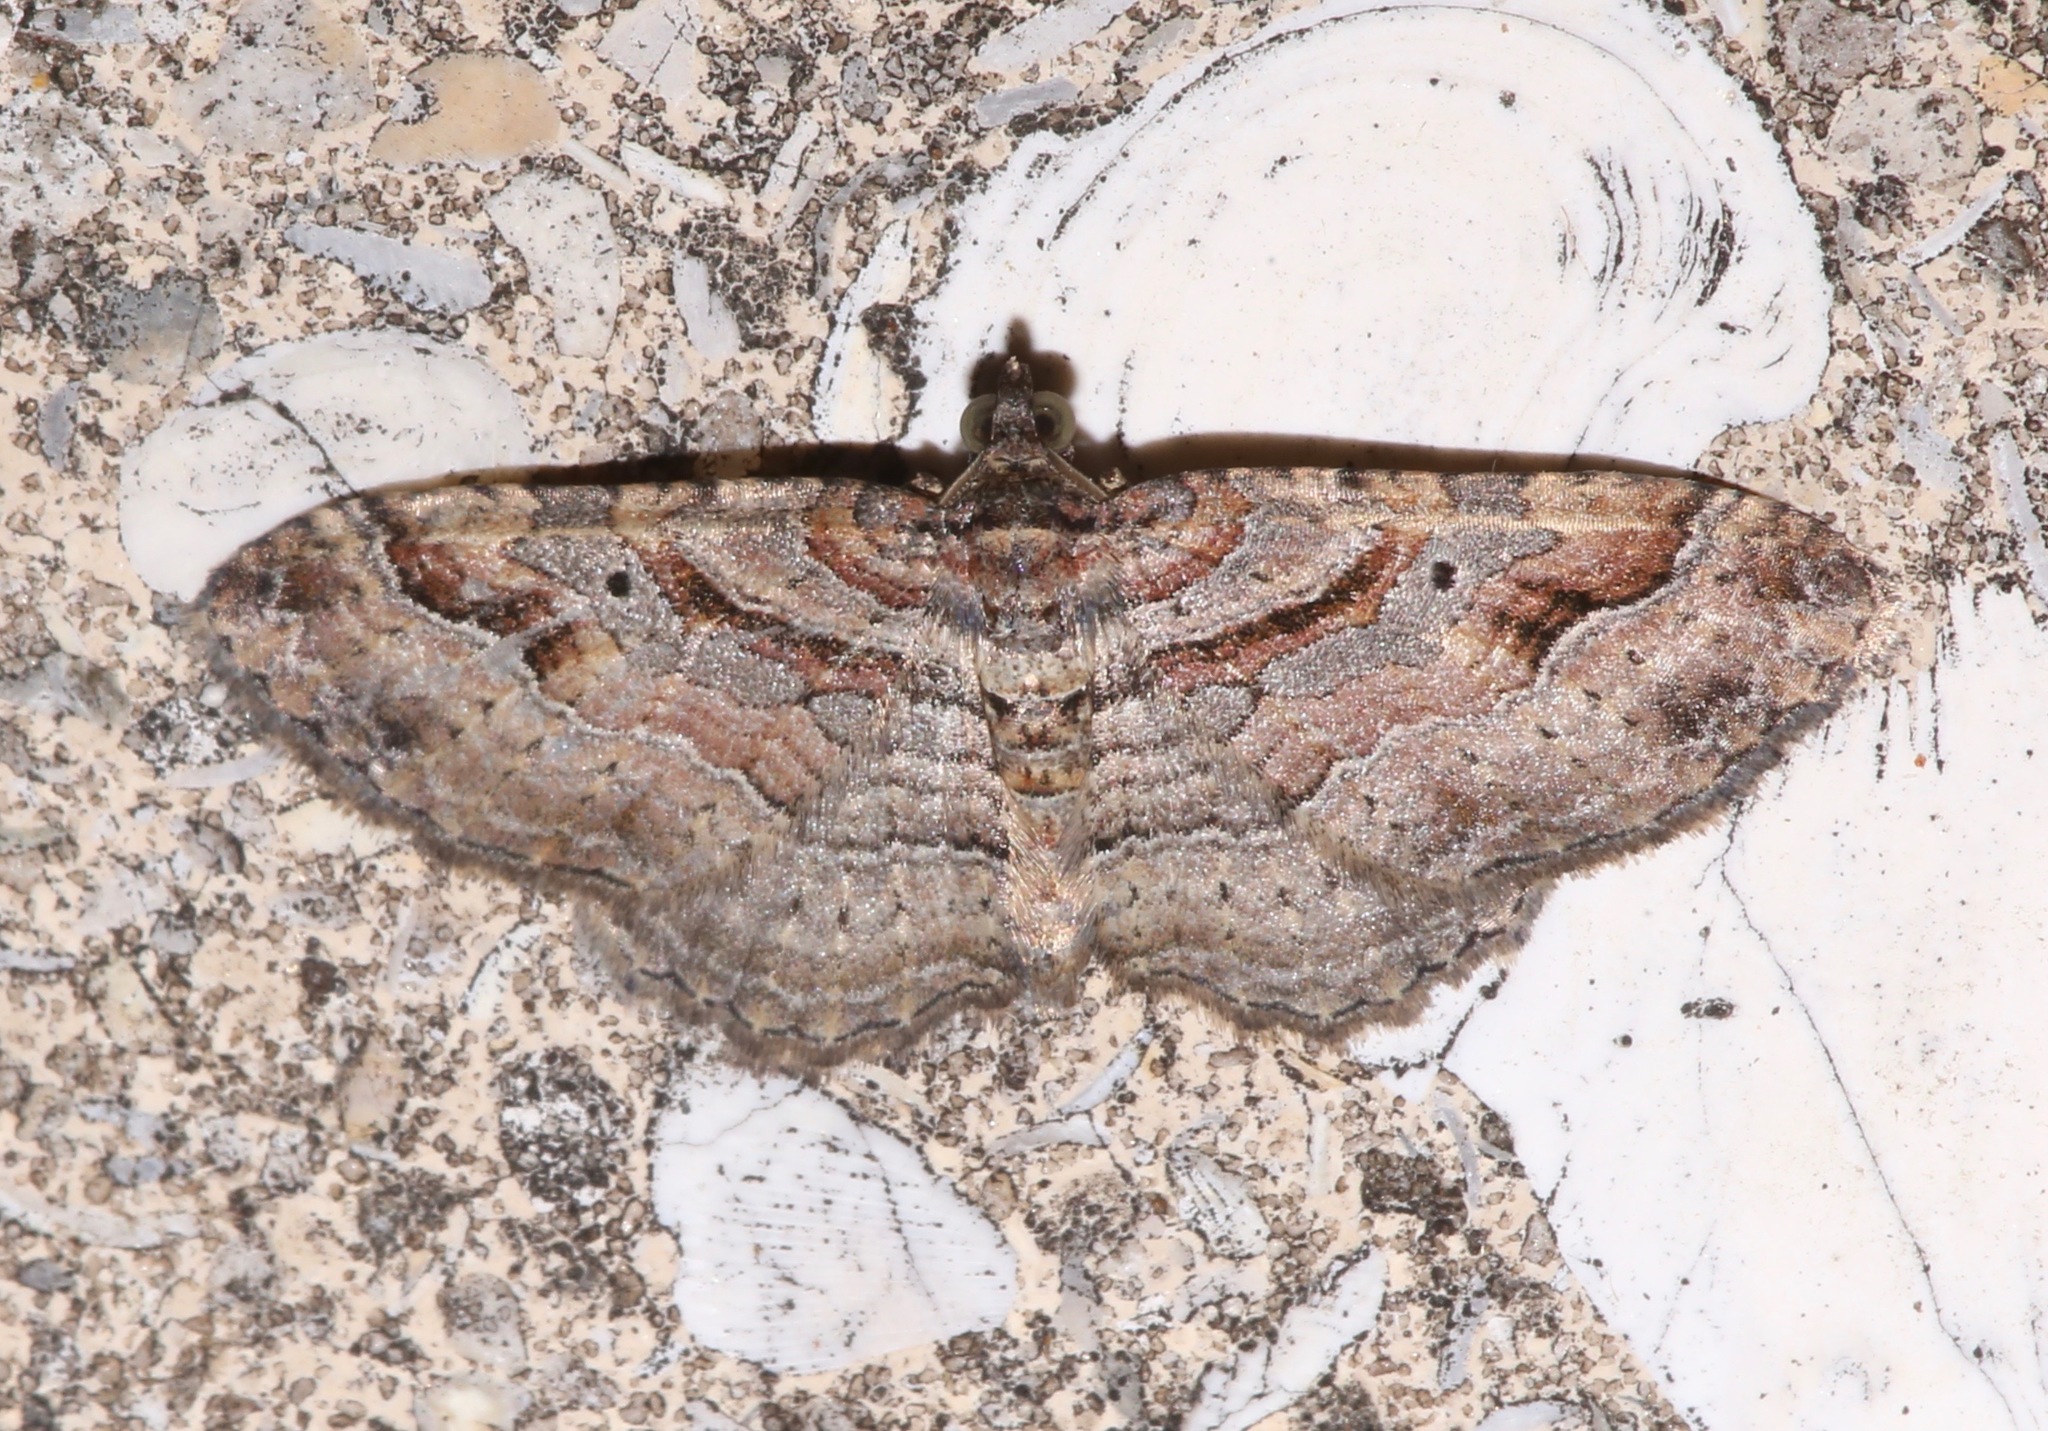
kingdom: Animalia
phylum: Arthropoda
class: Insecta
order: Lepidoptera
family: Geometridae
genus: Costaconvexa
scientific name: Costaconvexa centrostrigaria
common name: Bent-line carpet
